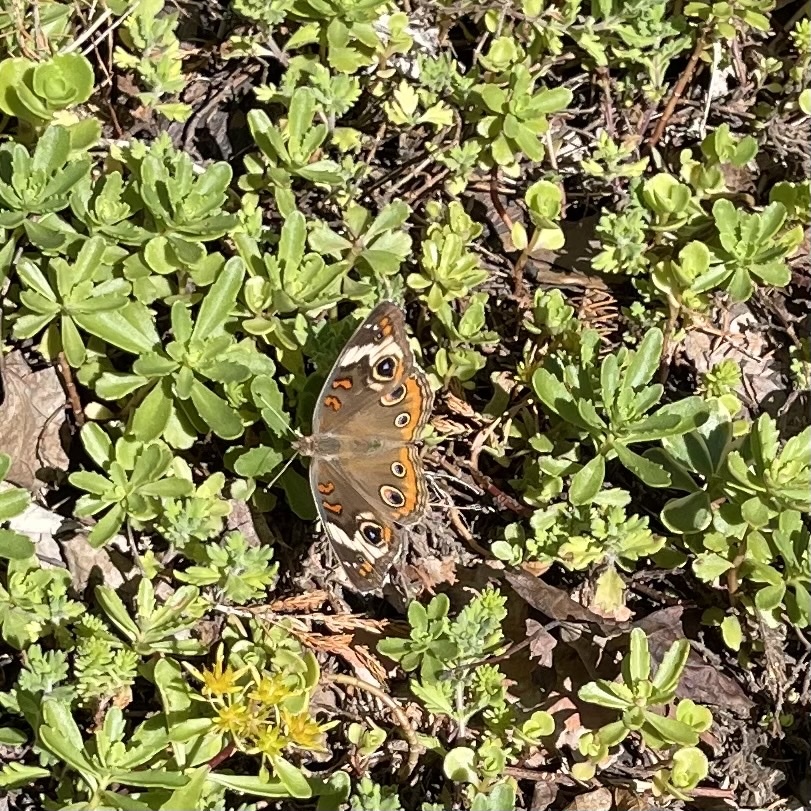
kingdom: Animalia
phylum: Arthropoda
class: Insecta
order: Lepidoptera
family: Nymphalidae
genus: Junonia
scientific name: Junonia coenia
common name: Common buckeye
